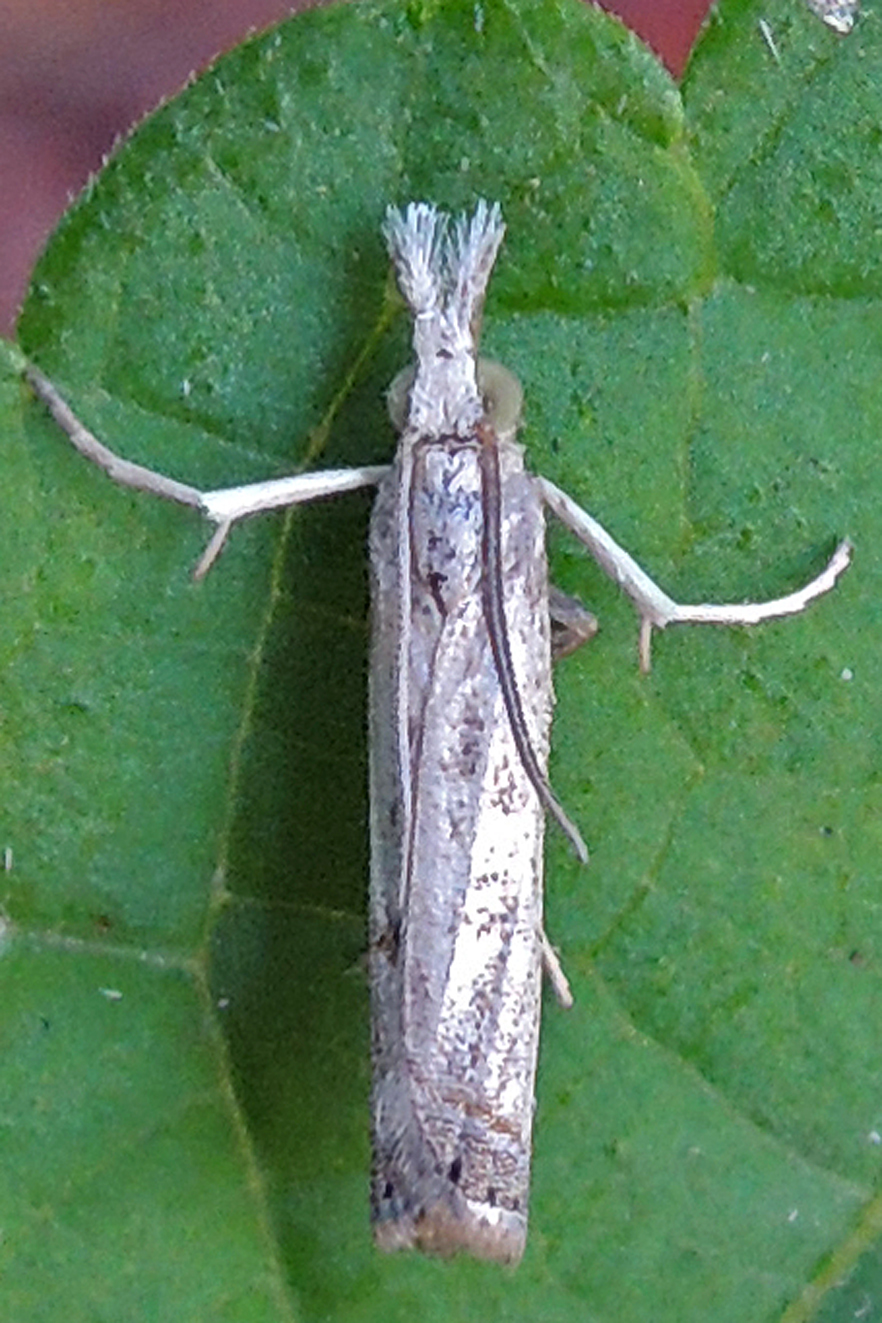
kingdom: Animalia
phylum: Arthropoda
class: Insecta
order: Lepidoptera
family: Crambidae
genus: Parapediasia
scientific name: Parapediasia teterellus
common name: Bluegrass webworm moth
